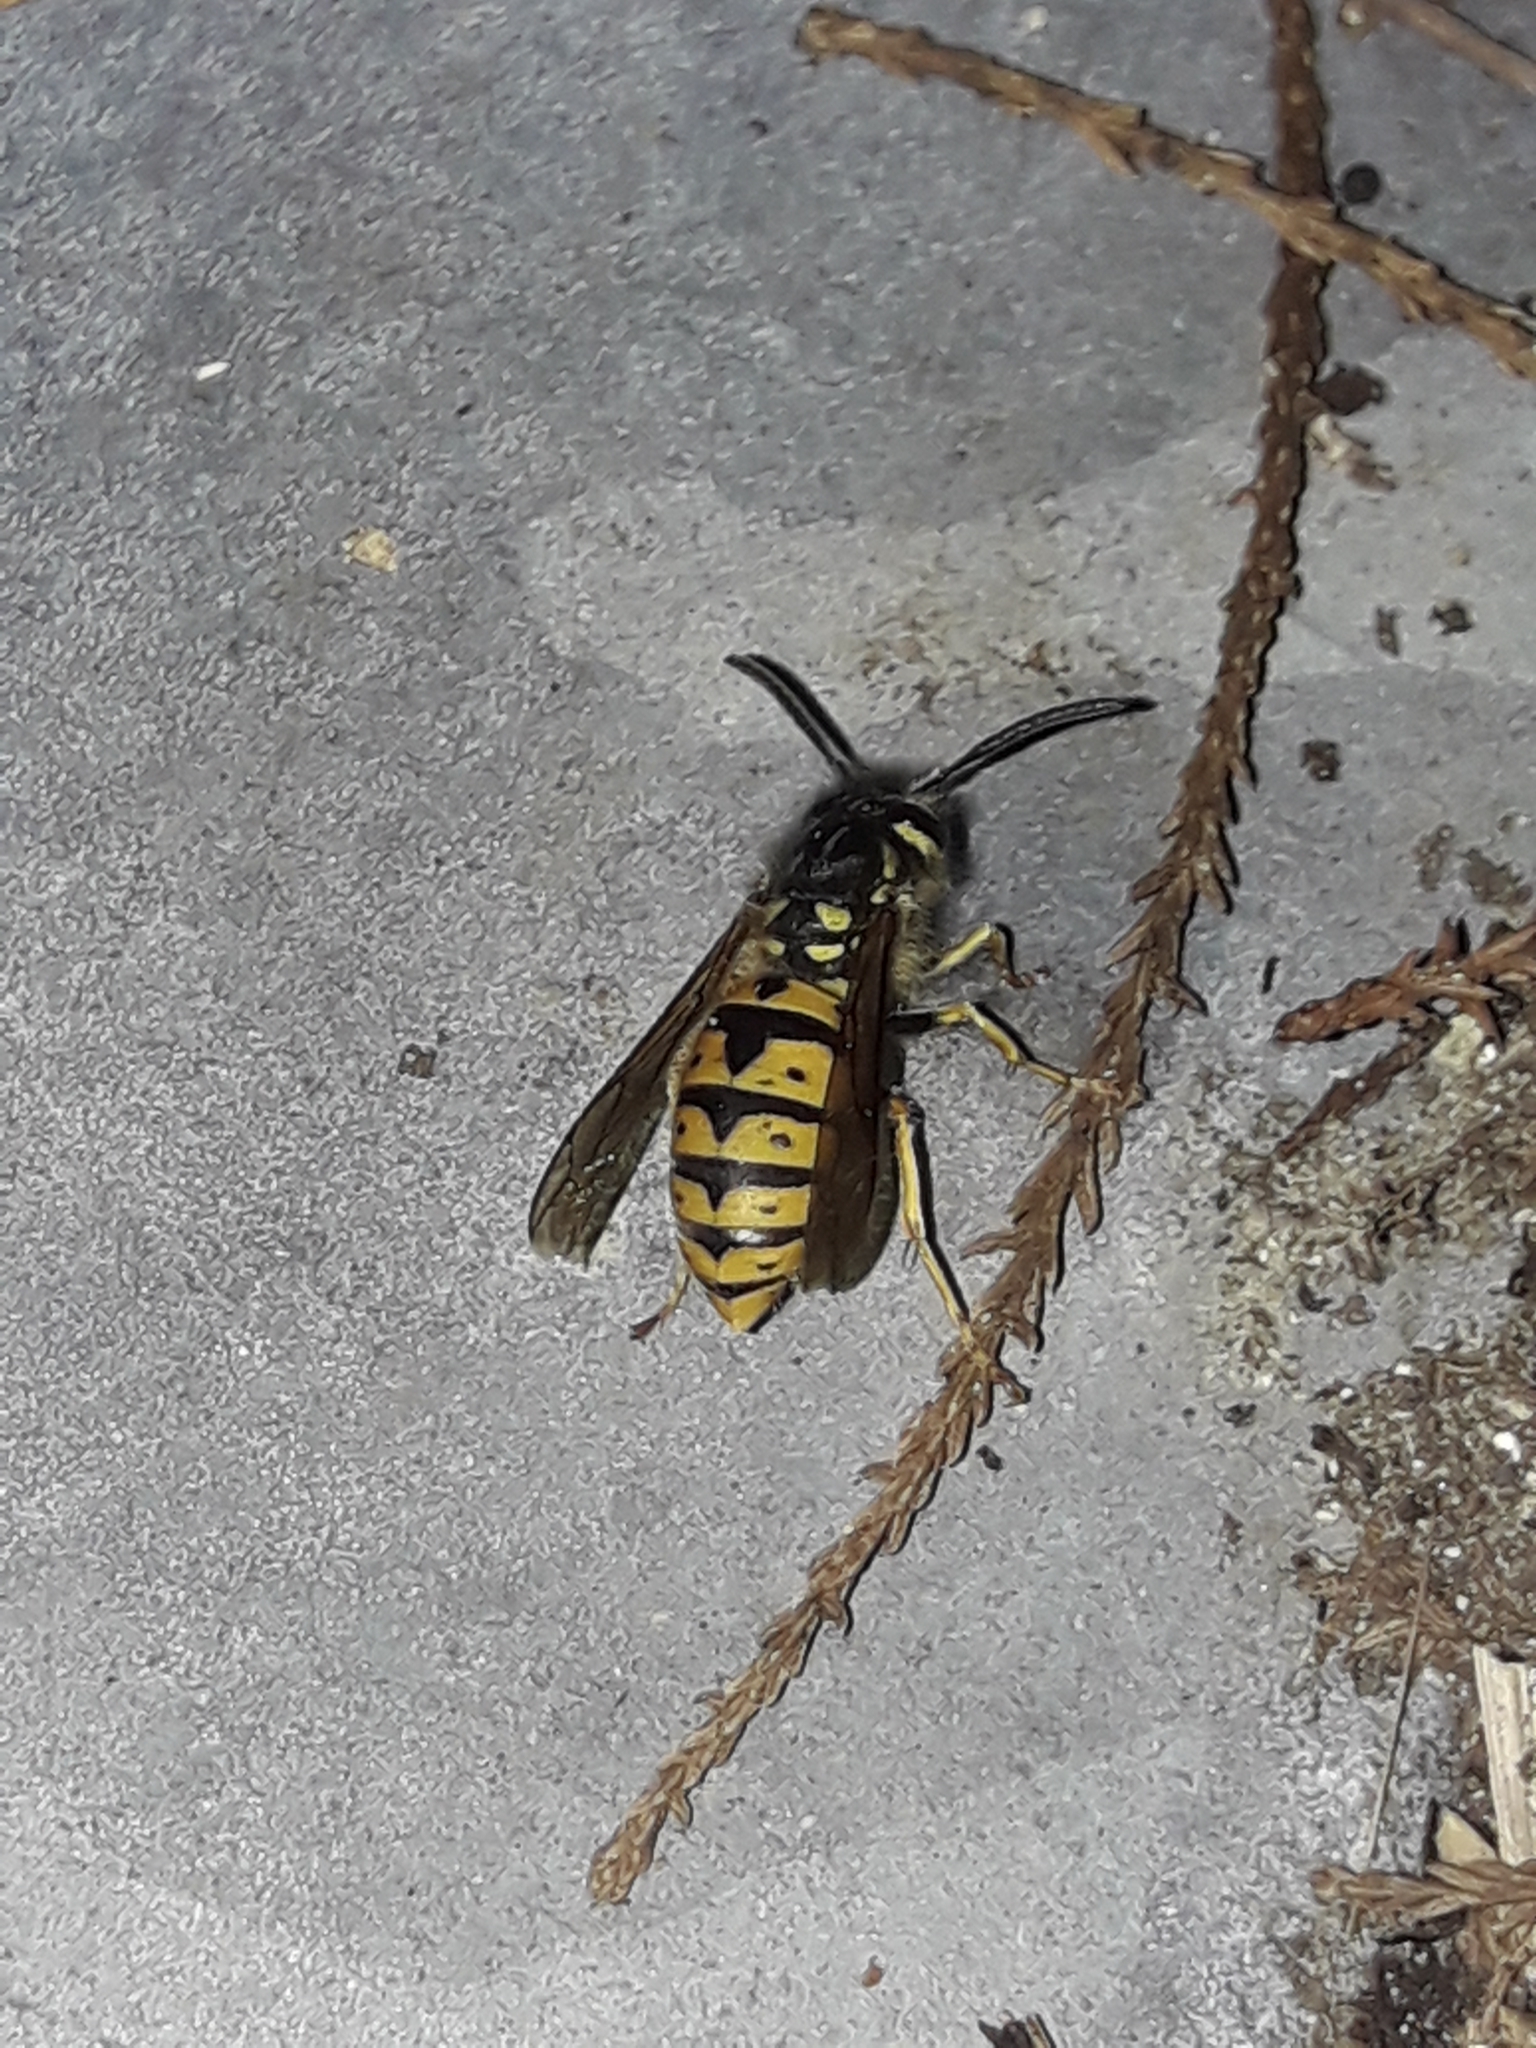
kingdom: Animalia
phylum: Arthropoda
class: Insecta
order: Hymenoptera
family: Vespidae
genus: Vespula
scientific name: Vespula germanica
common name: German wasp
